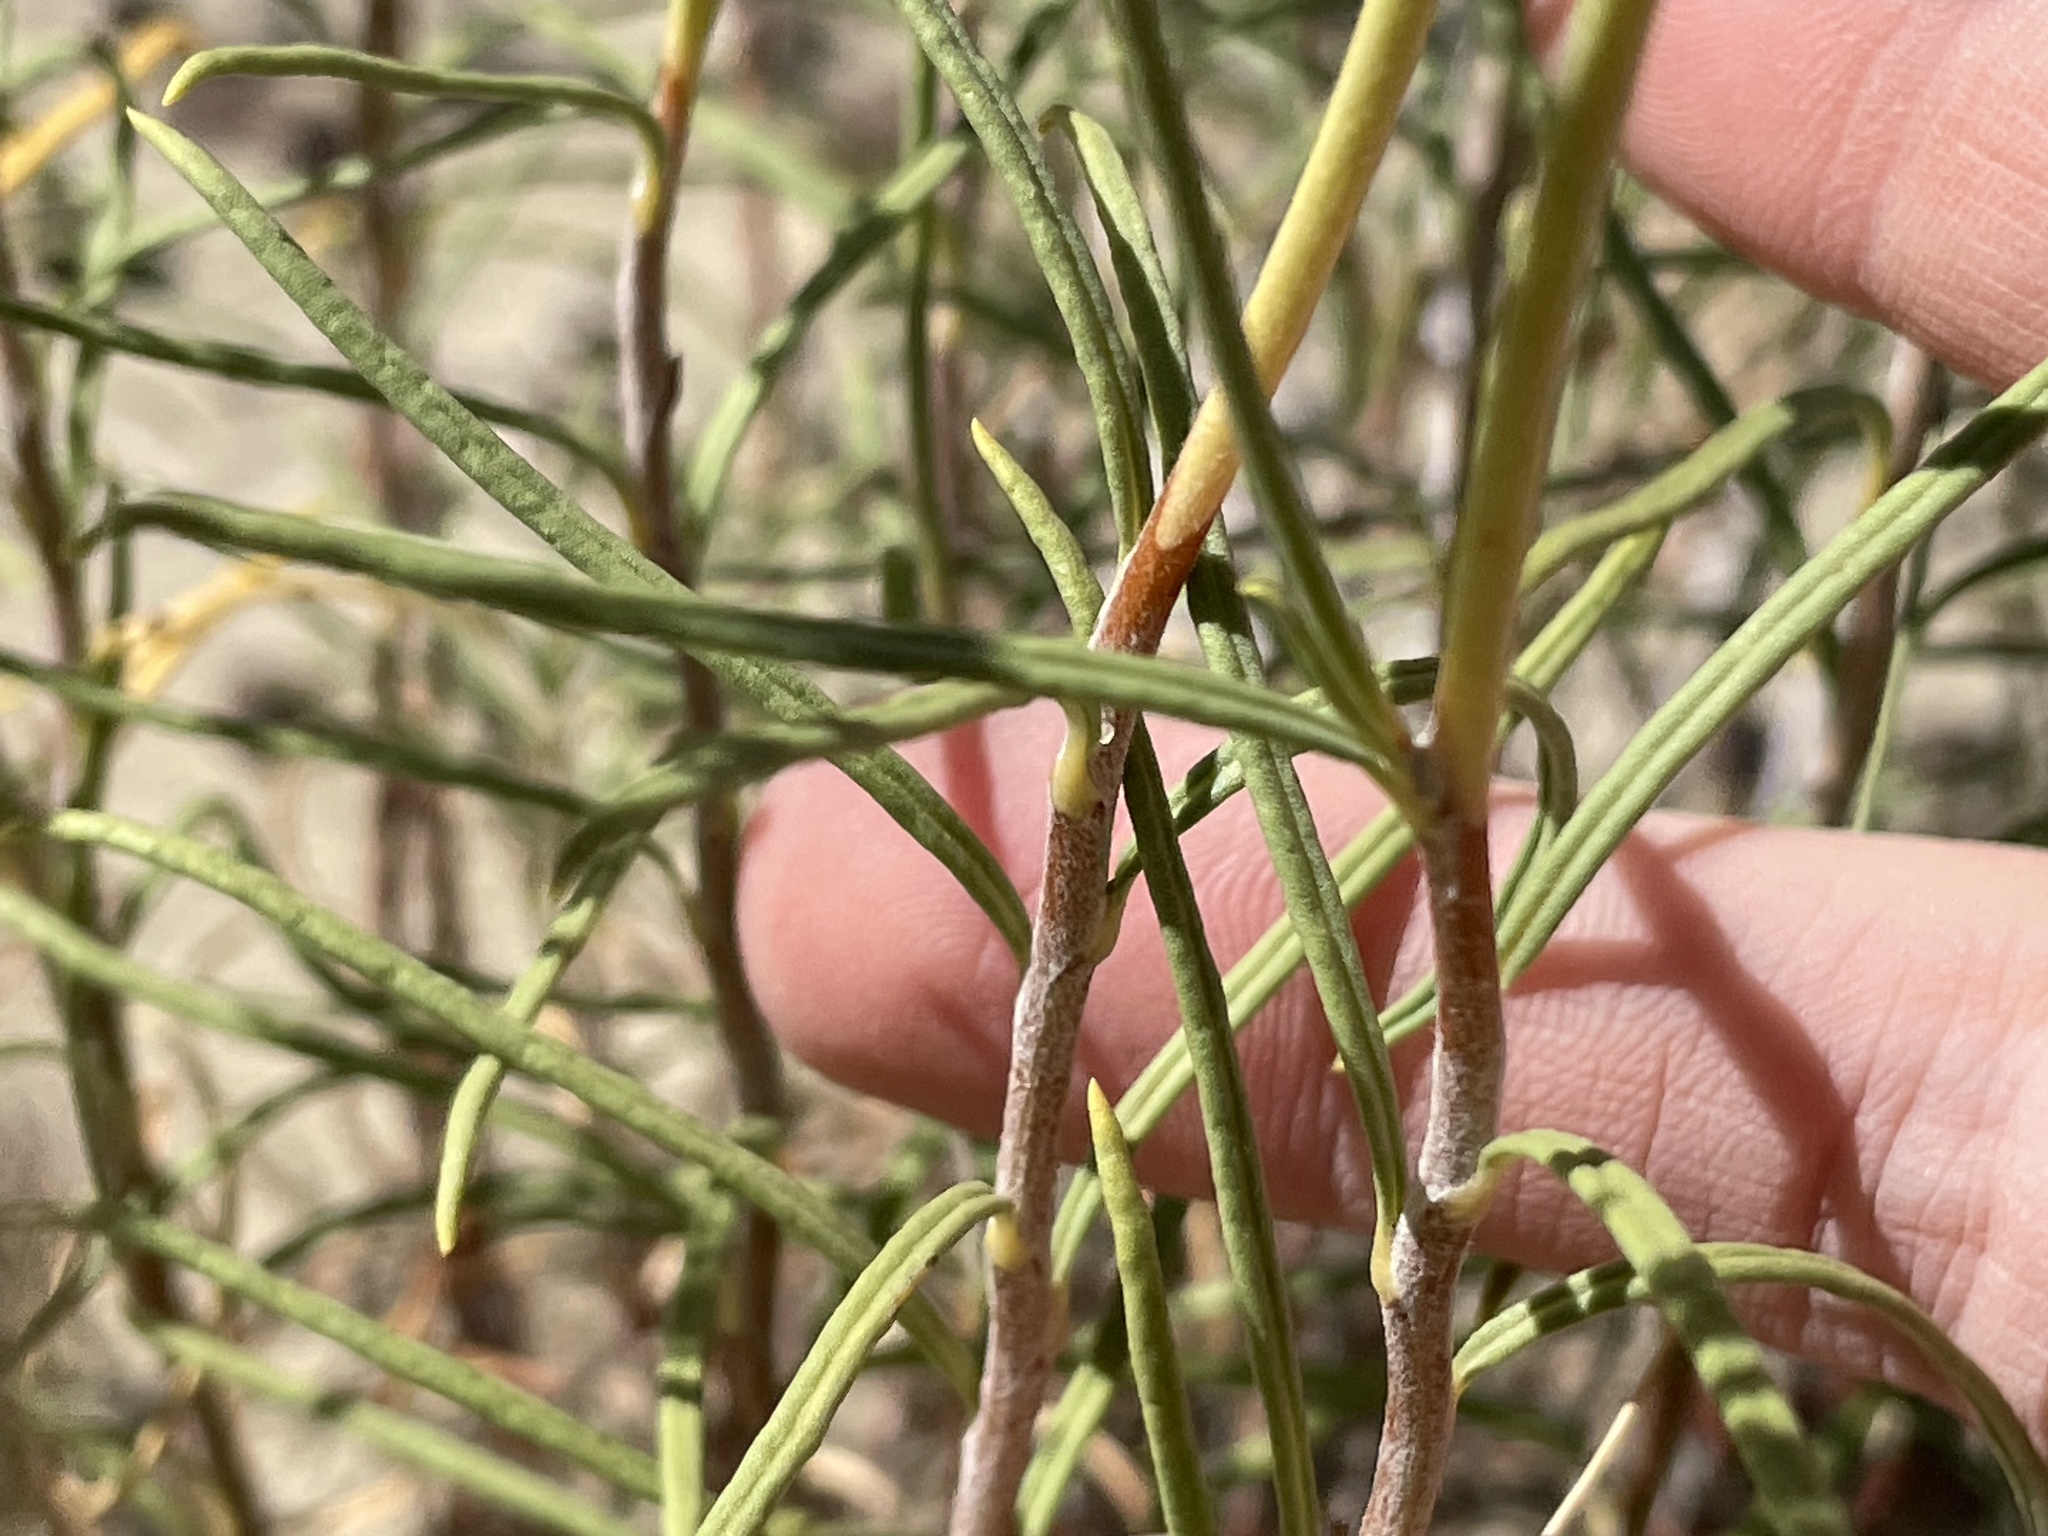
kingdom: Plantae
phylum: Tracheophyta
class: Magnoliopsida
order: Caryophyllales
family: Polygonaceae
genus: Eriogonum
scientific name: Eriogonum leptophyllum
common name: Slender-leaf wild buckwheat
